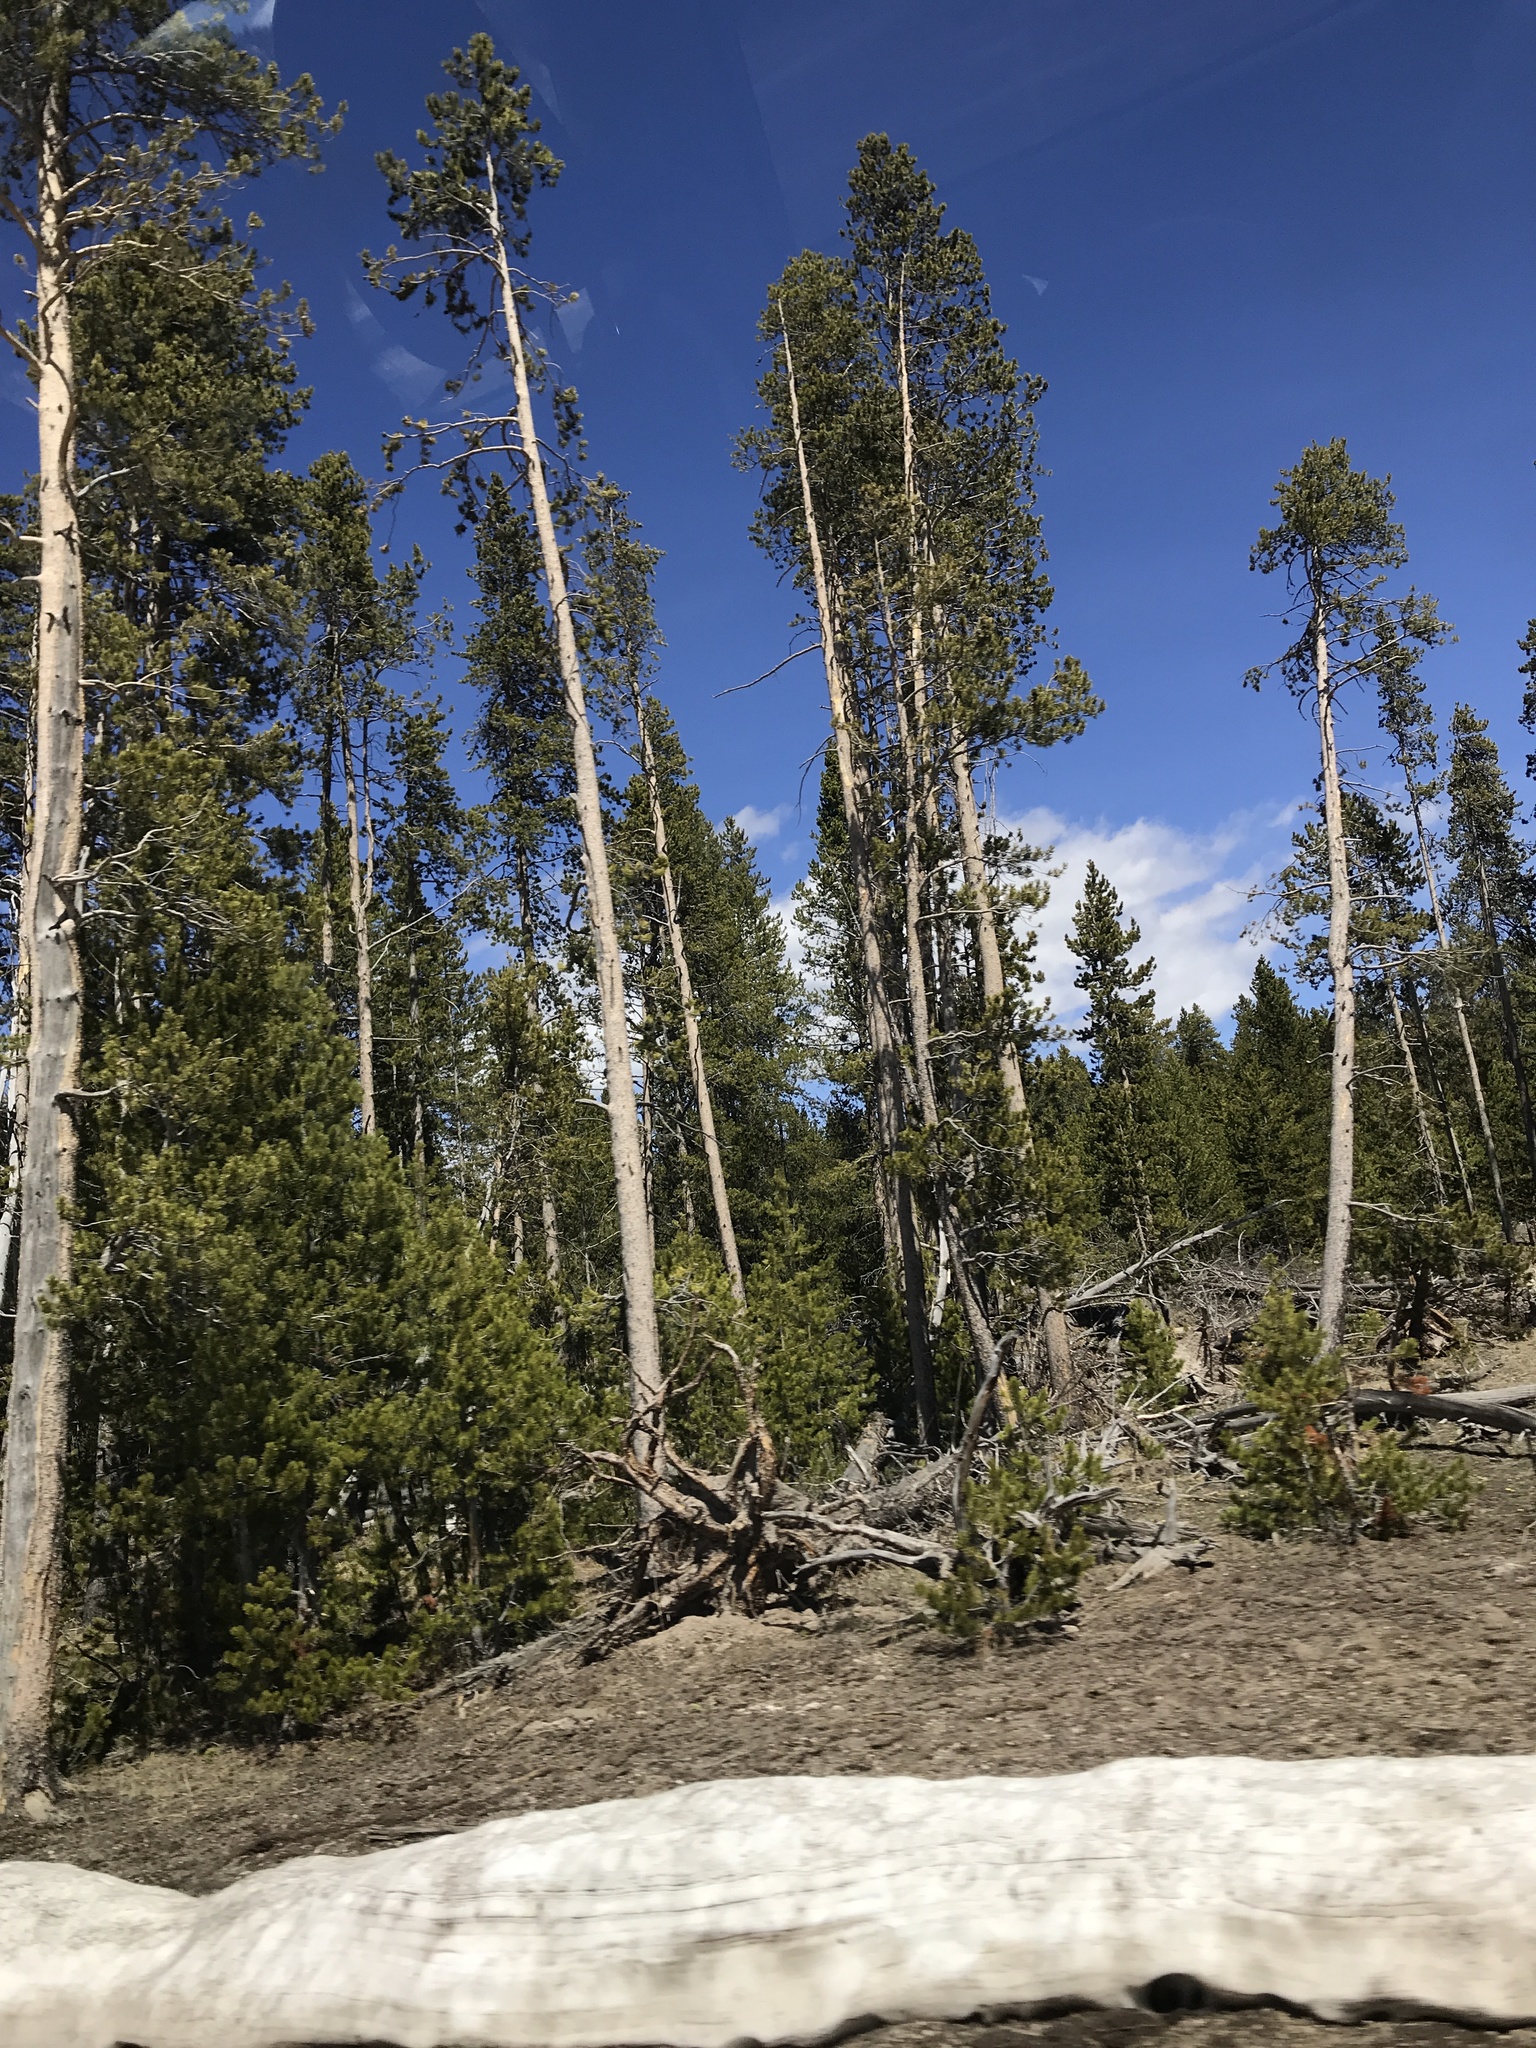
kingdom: Plantae
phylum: Tracheophyta
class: Pinopsida
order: Pinales
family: Pinaceae
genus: Pinus
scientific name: Pinus contorta
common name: Lodgepole pine
